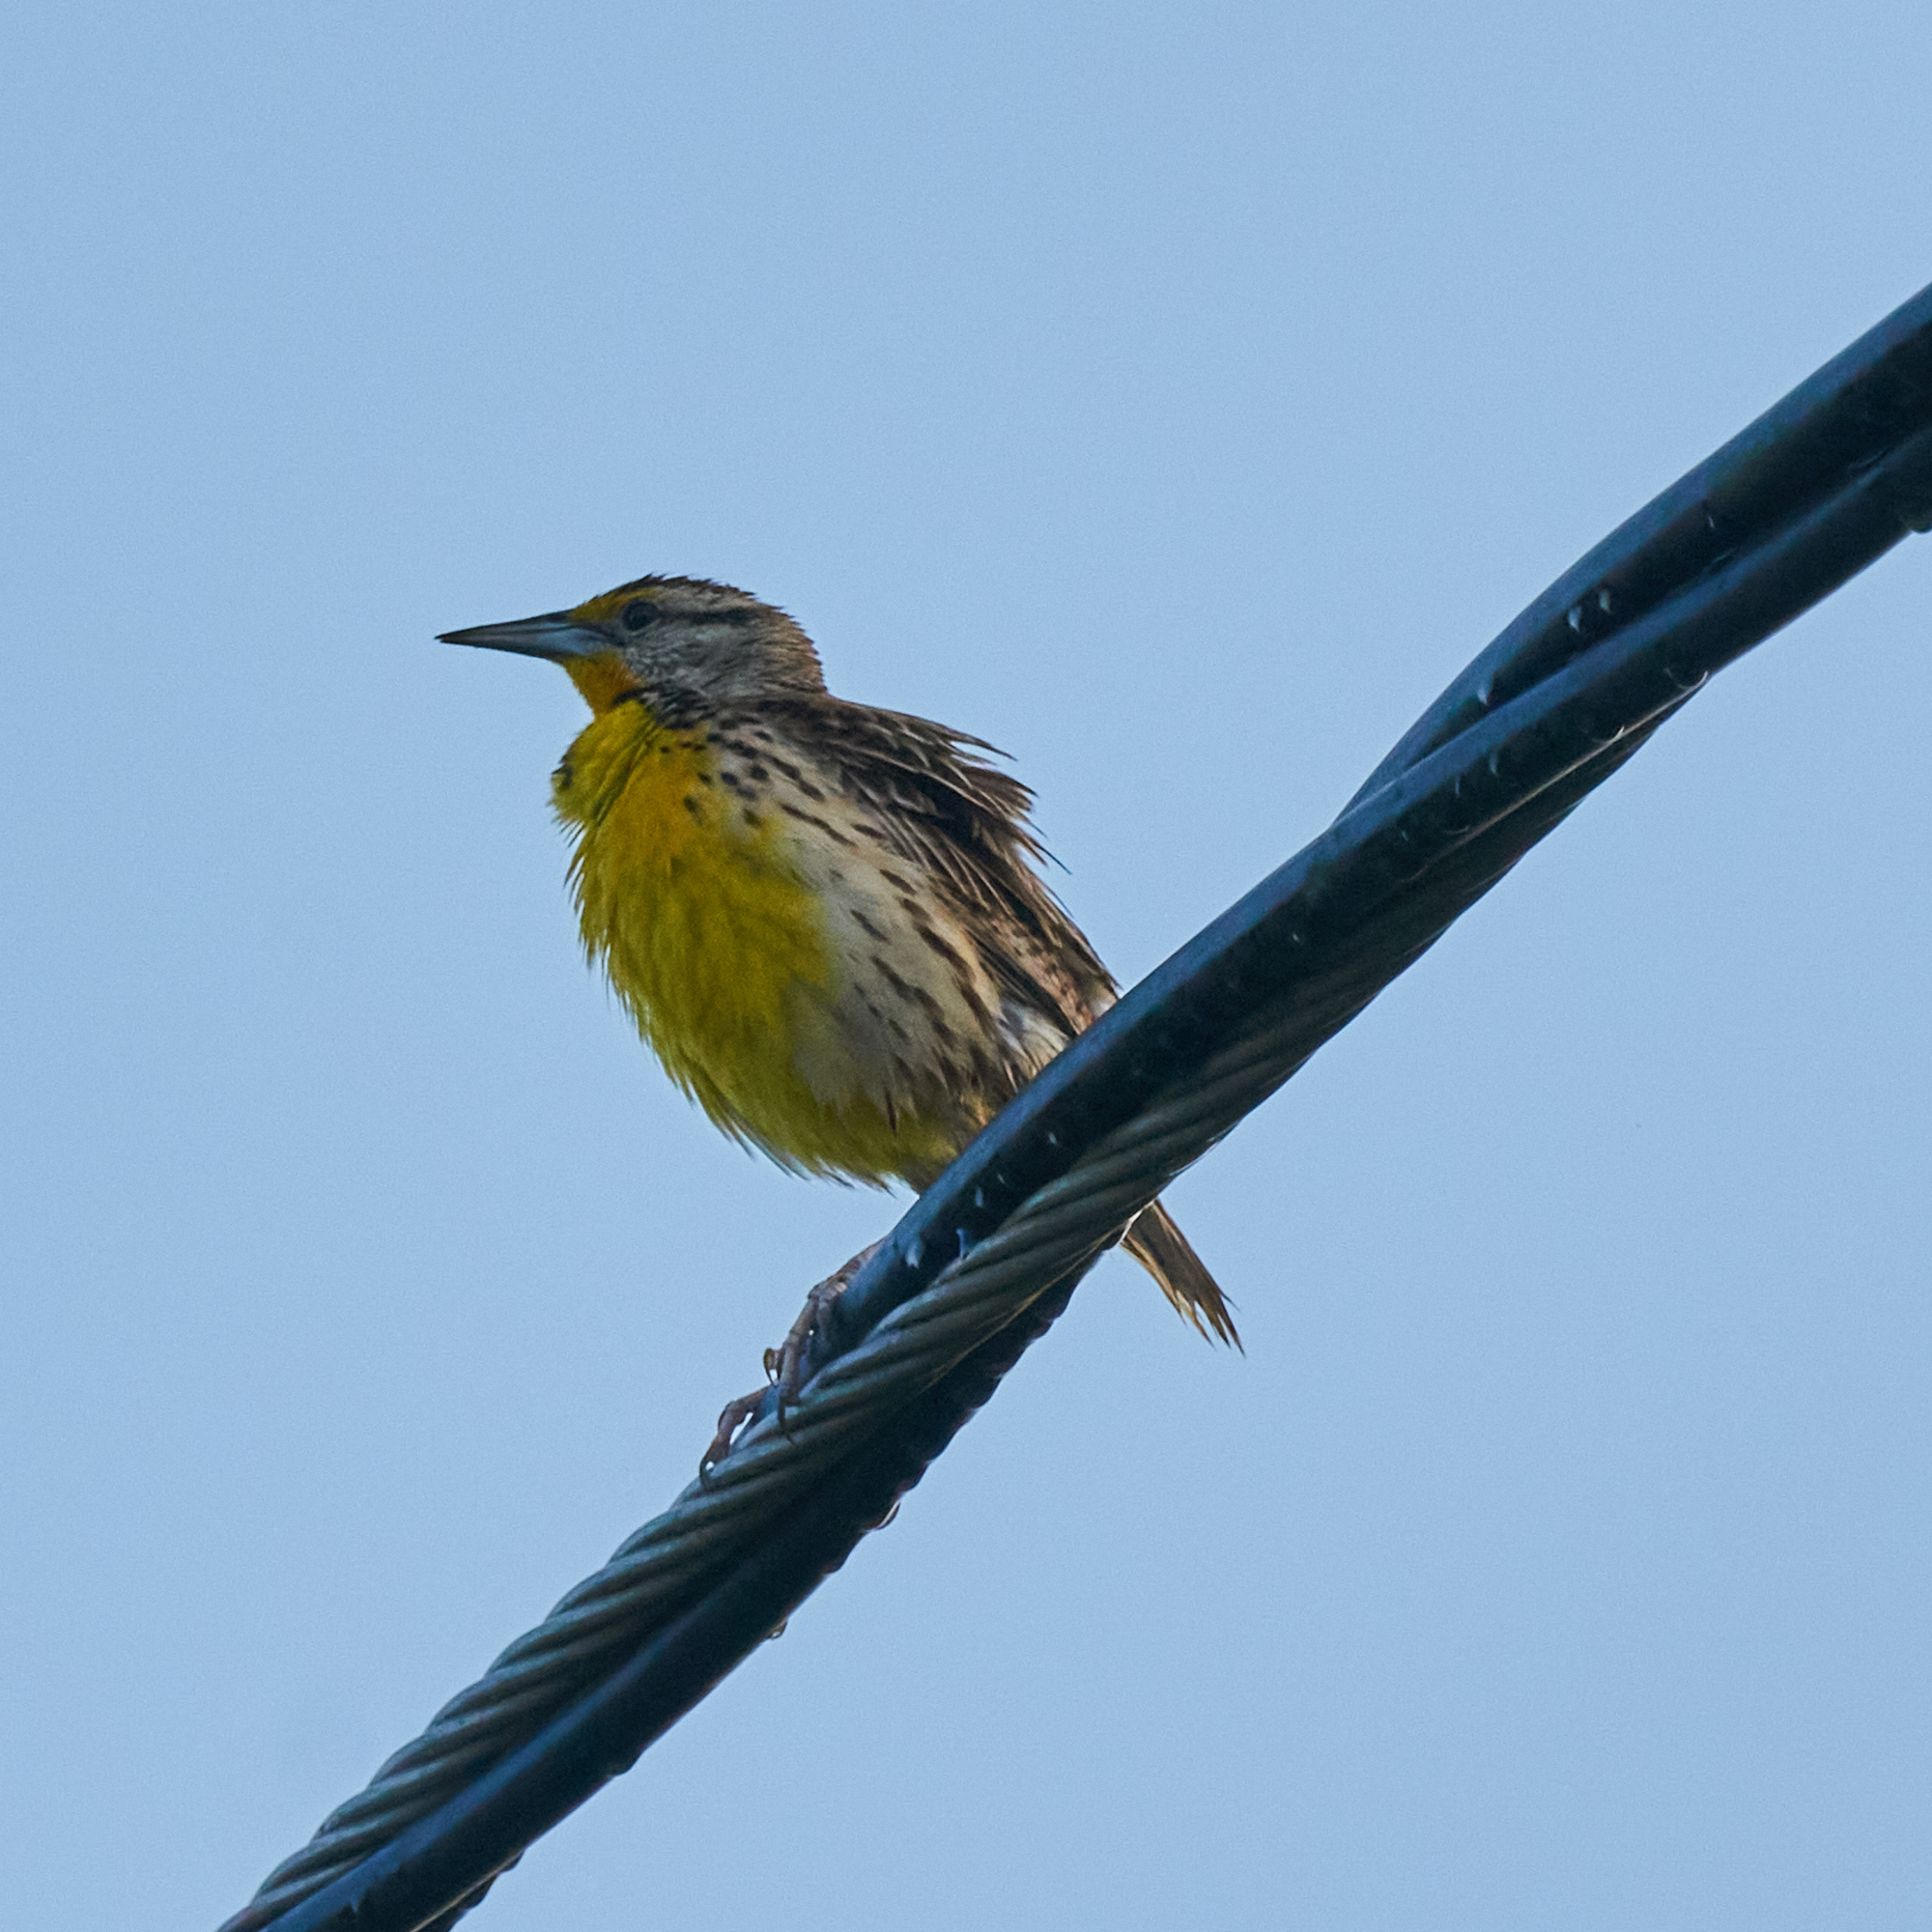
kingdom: Animalia
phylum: Chordata
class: Aves
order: Passeriformes
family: Icteridae
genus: Sturnella
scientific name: Sturnella magna
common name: Eastern meadowlark
